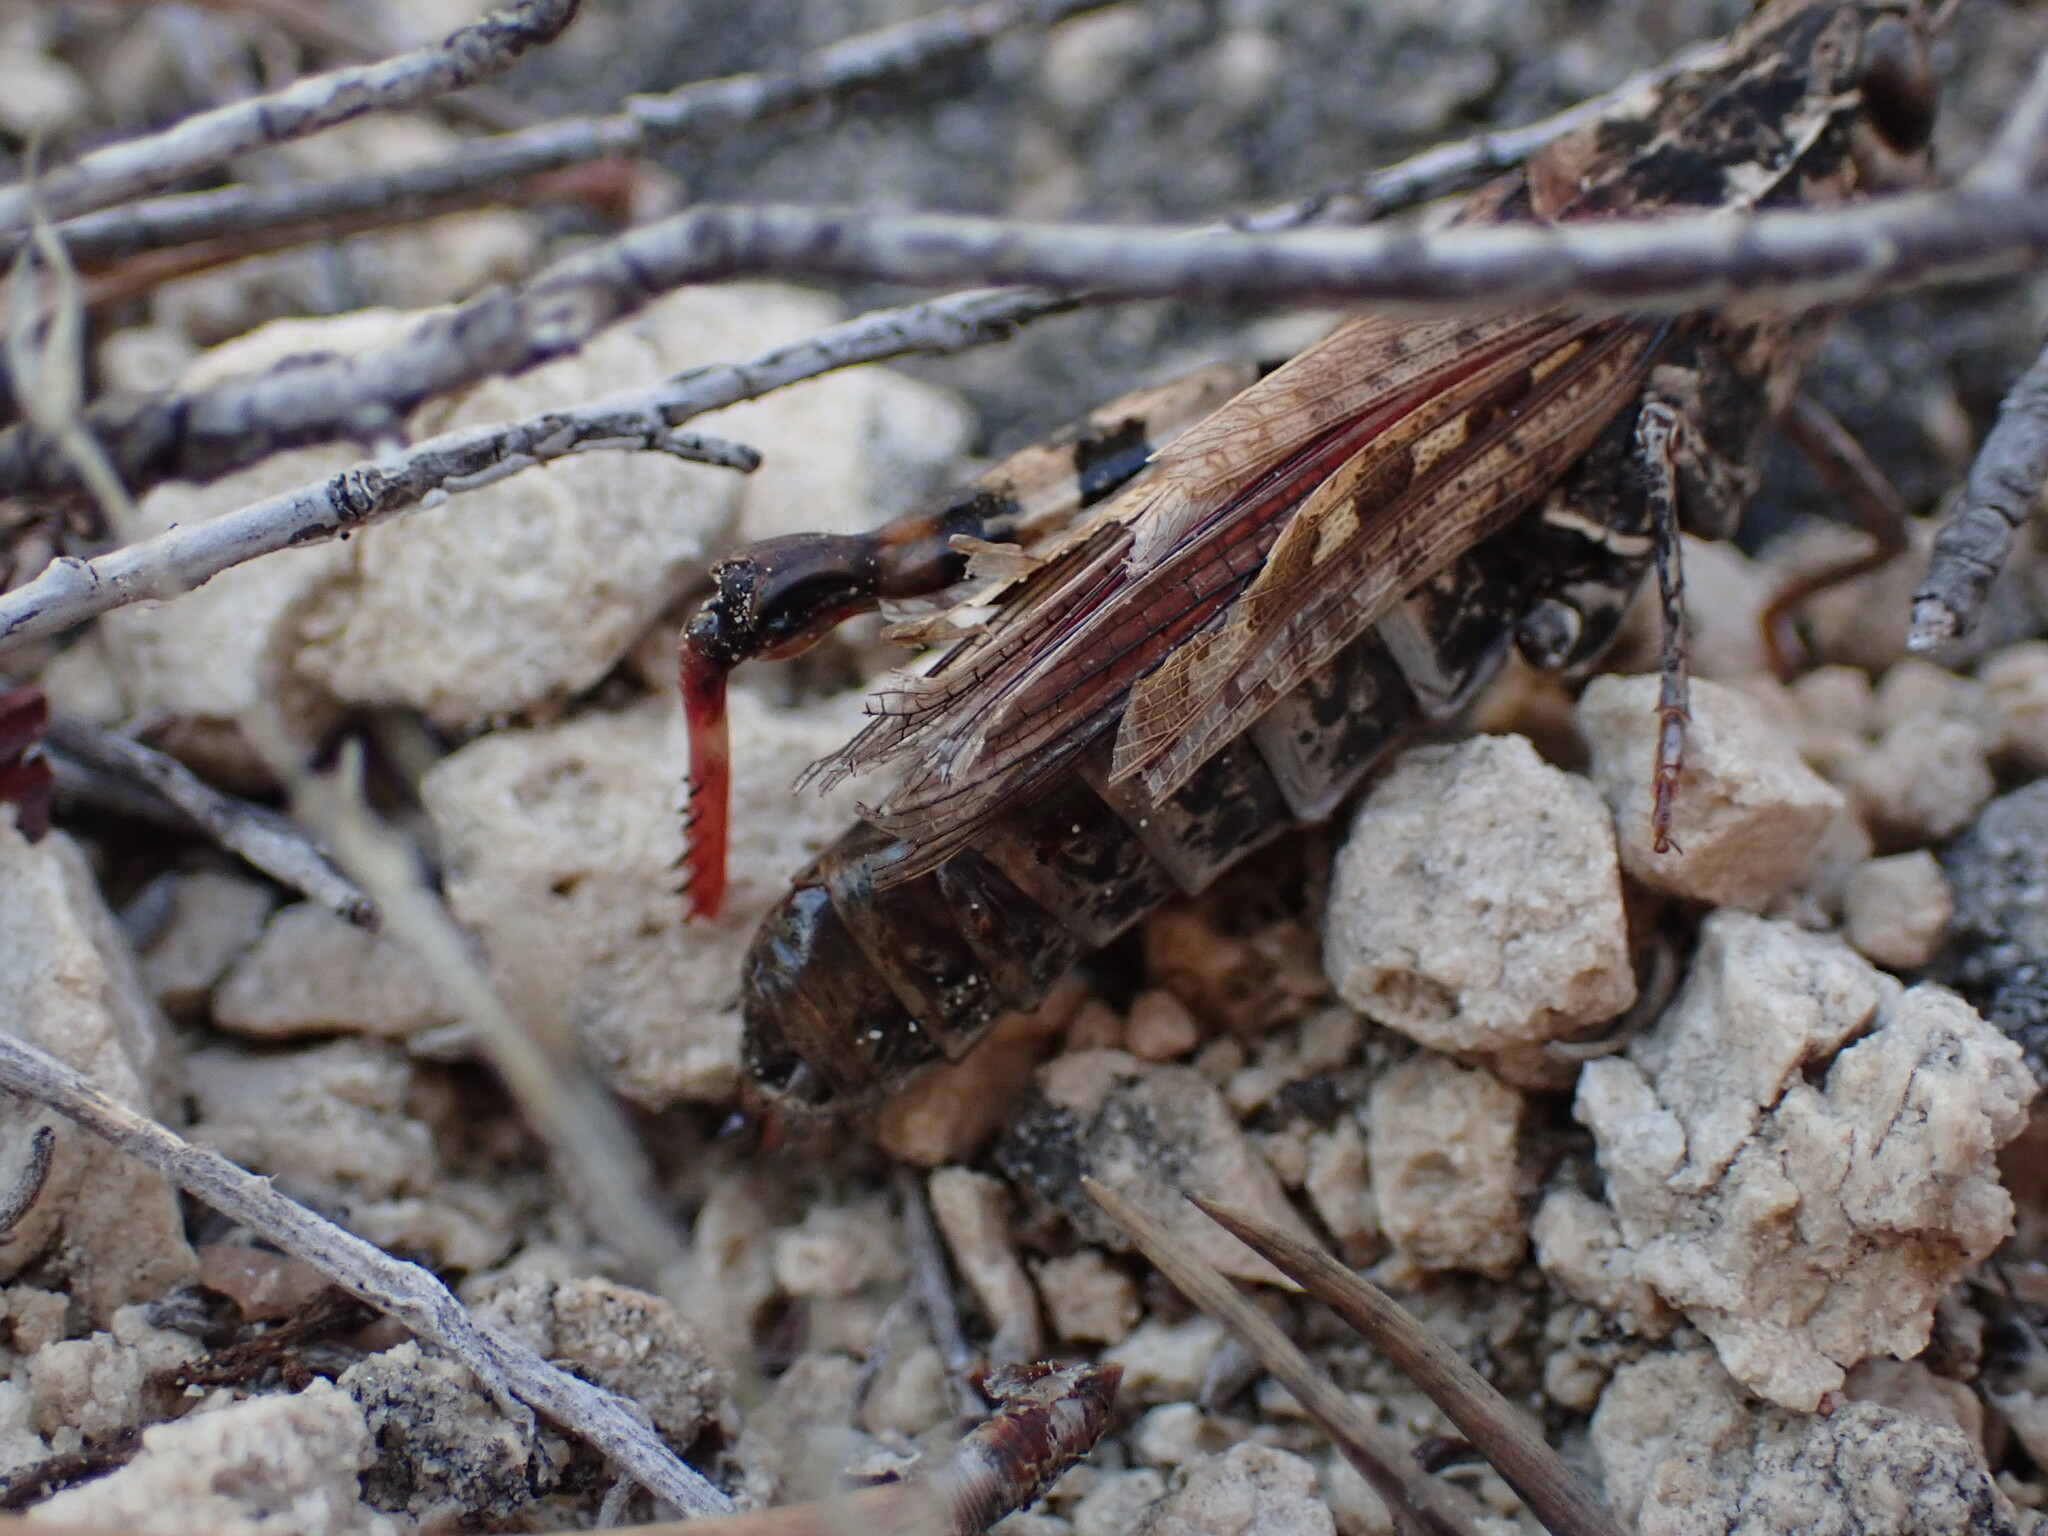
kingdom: Animalia
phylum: Arthropoda
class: Insecta
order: Orthoptera
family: Acrididae
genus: Calliptamus
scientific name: Calliptamus barbarus
